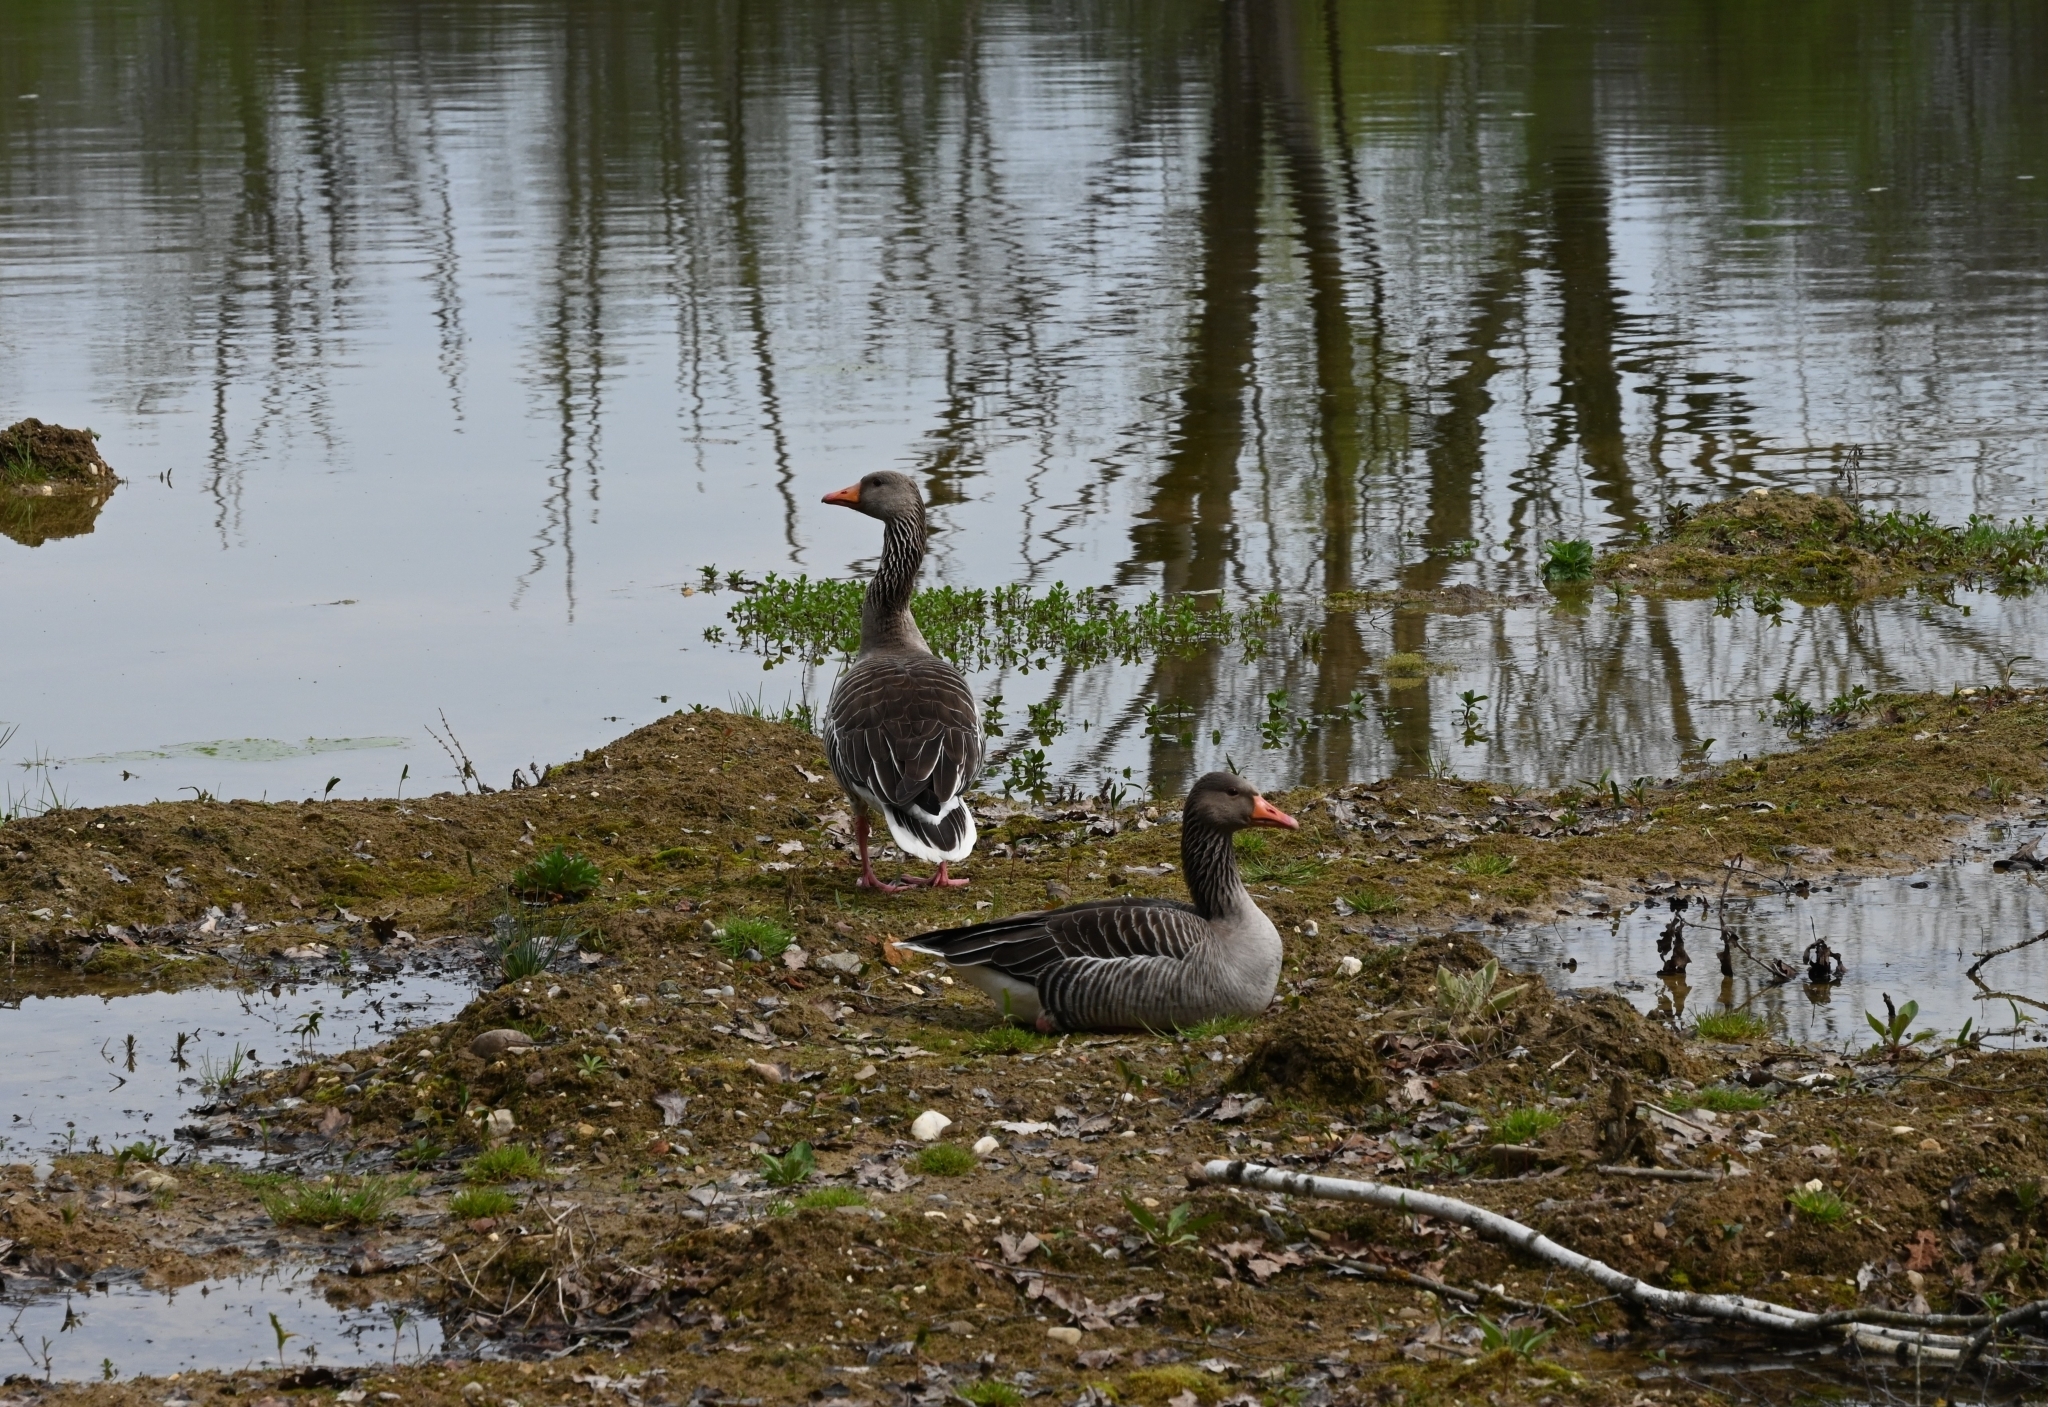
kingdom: Animalia
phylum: Chordata
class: Aves
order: Anseriformes
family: Anatidae
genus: Anser
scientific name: Anser anser
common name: Greylag goose
